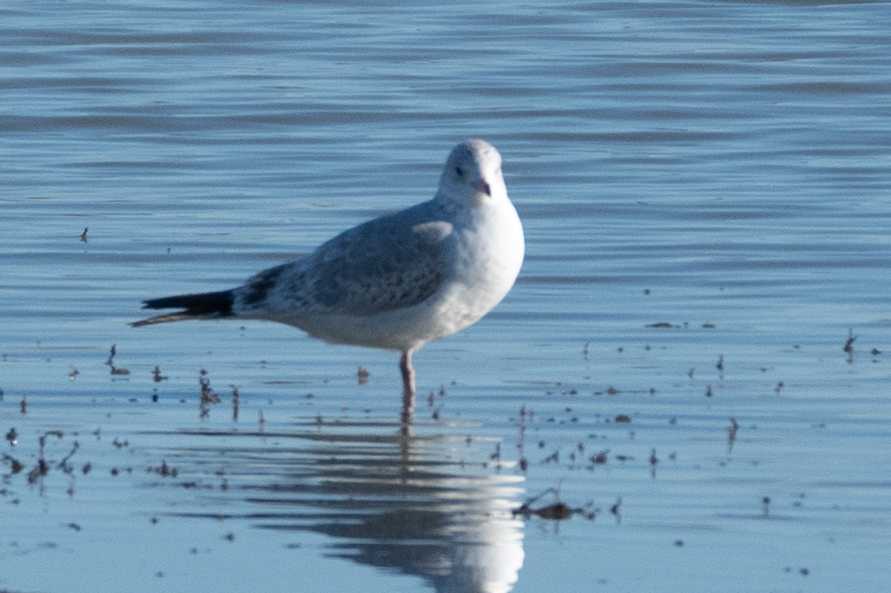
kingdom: Animalia
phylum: Chordata
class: Aves
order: Charadriiformes
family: Laridae
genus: Larus
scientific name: Larus delawarensis
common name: Ring-billed gull
